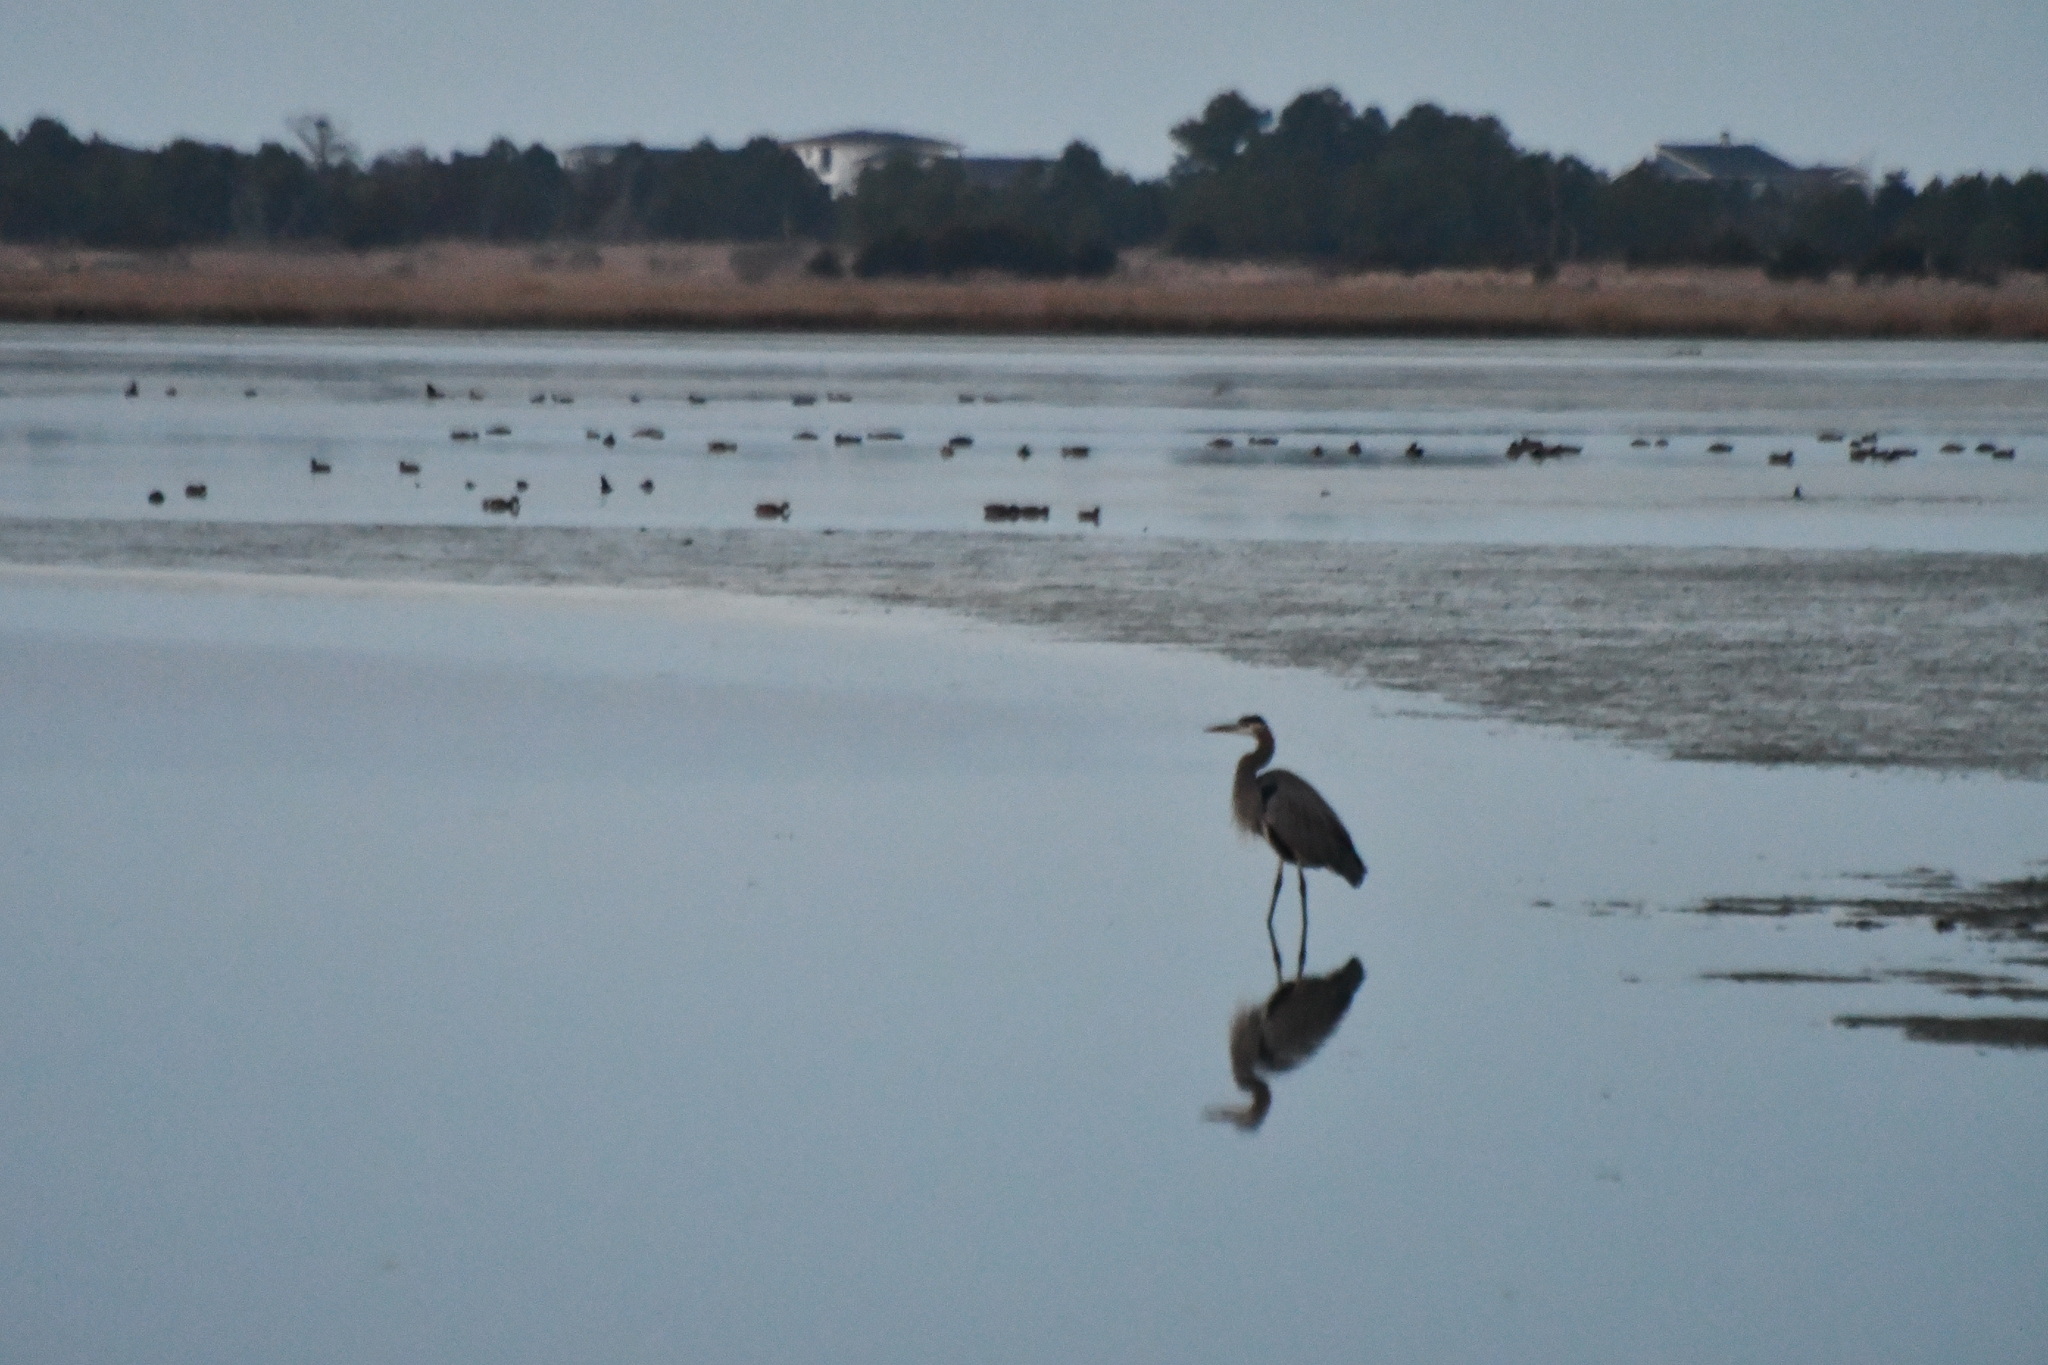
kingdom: Animalia
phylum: Chordata
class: Aves
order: Pelecaniformes
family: Ardeidae
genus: Ardea
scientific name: Ardea herodias
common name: Great blue heron
